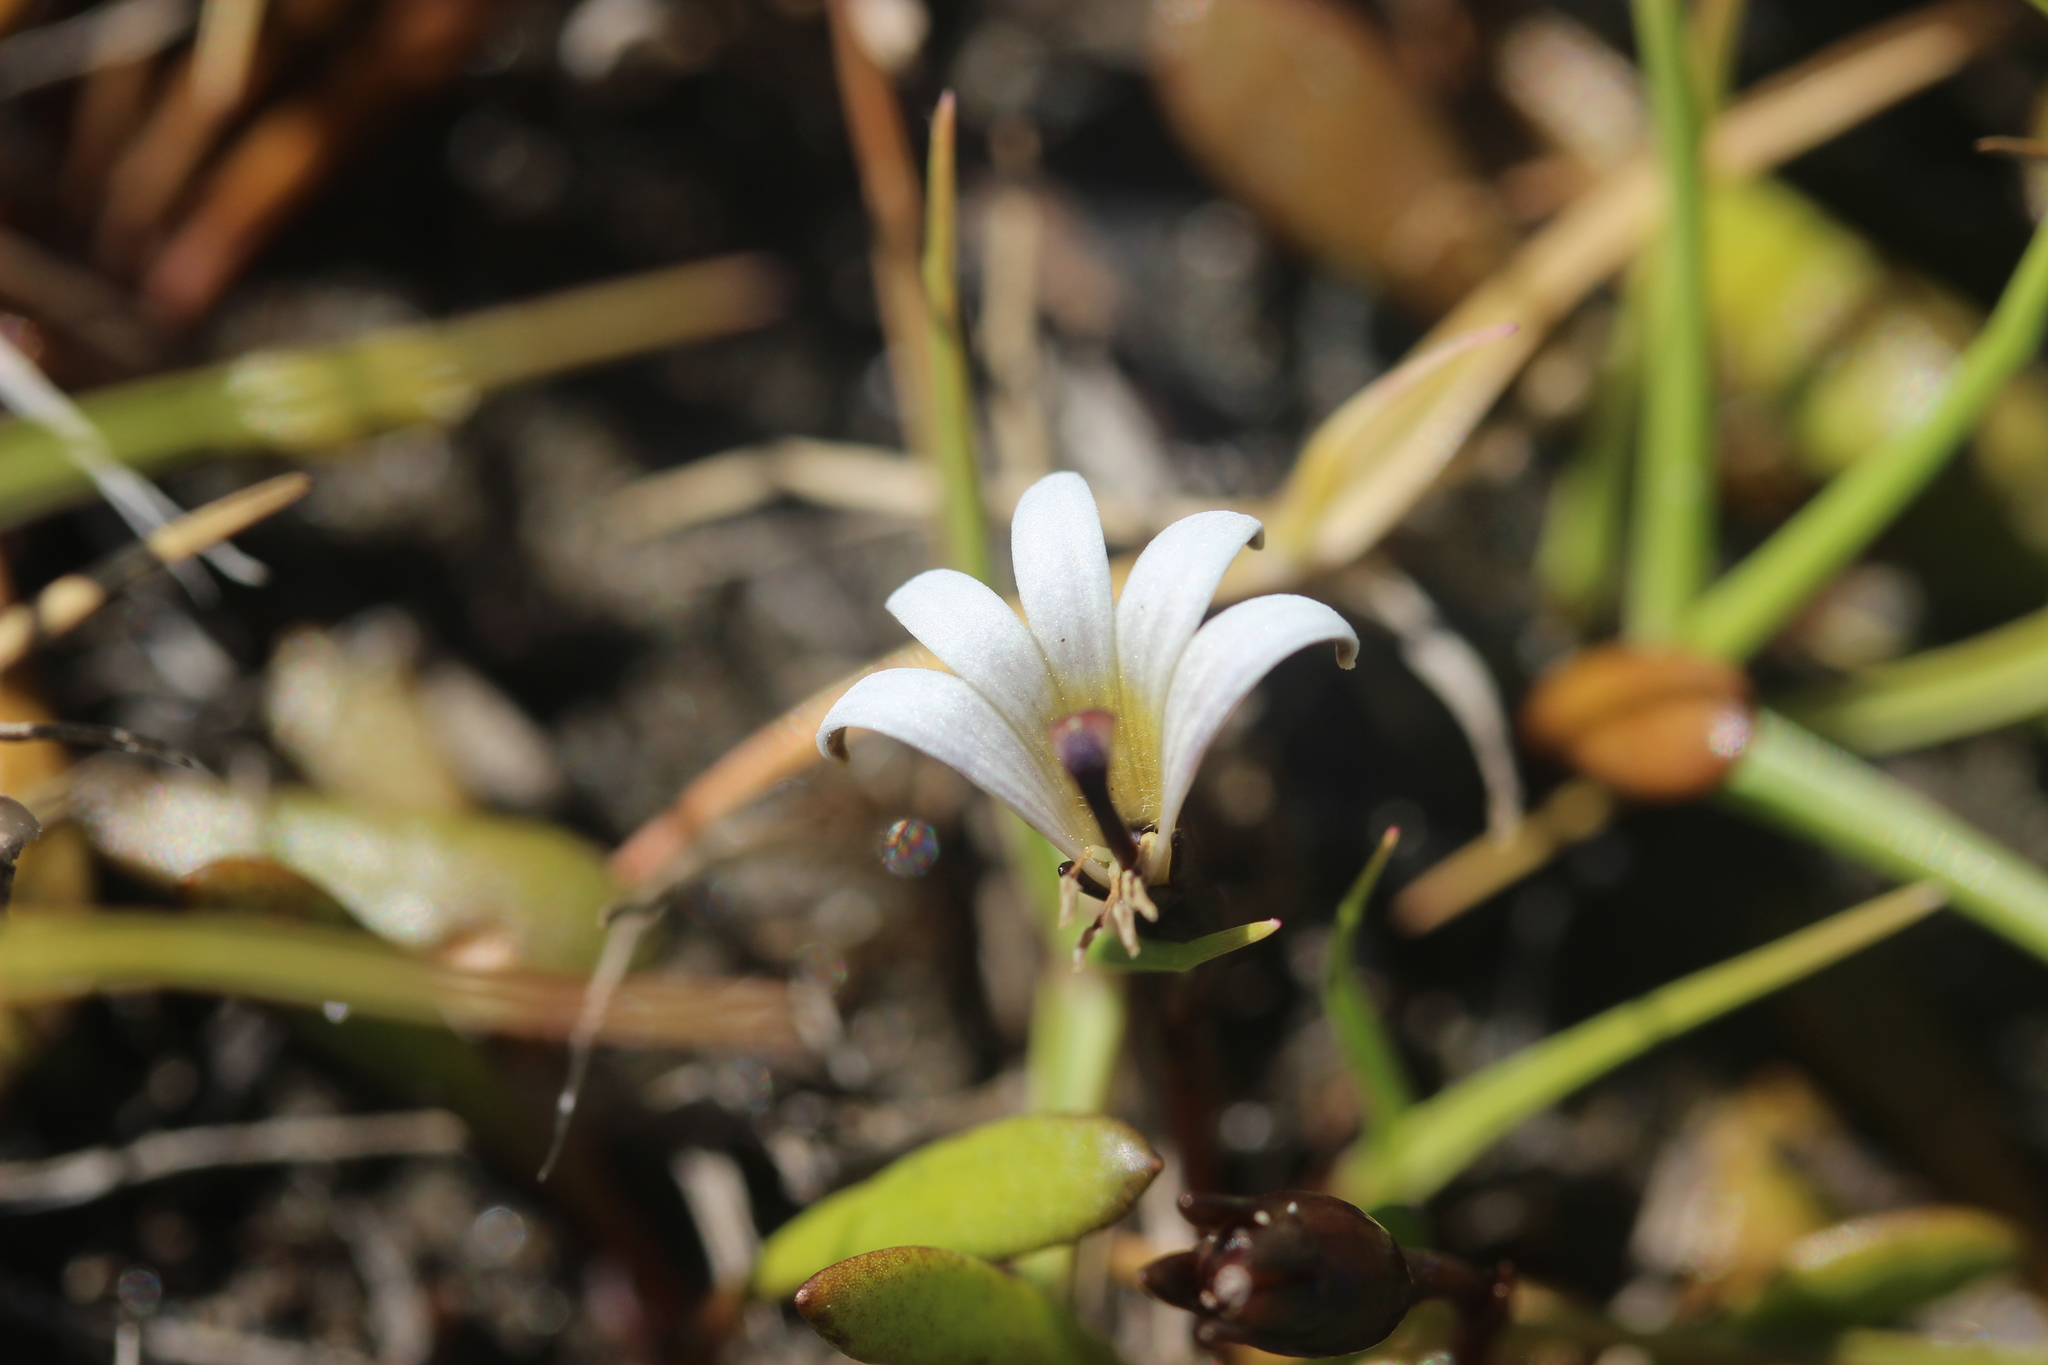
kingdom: Plantae
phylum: Tracheophyta
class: Magnoliopsida
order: Asterales
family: Goodeniaceae
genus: Goodenia
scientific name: Goodenia radicans
